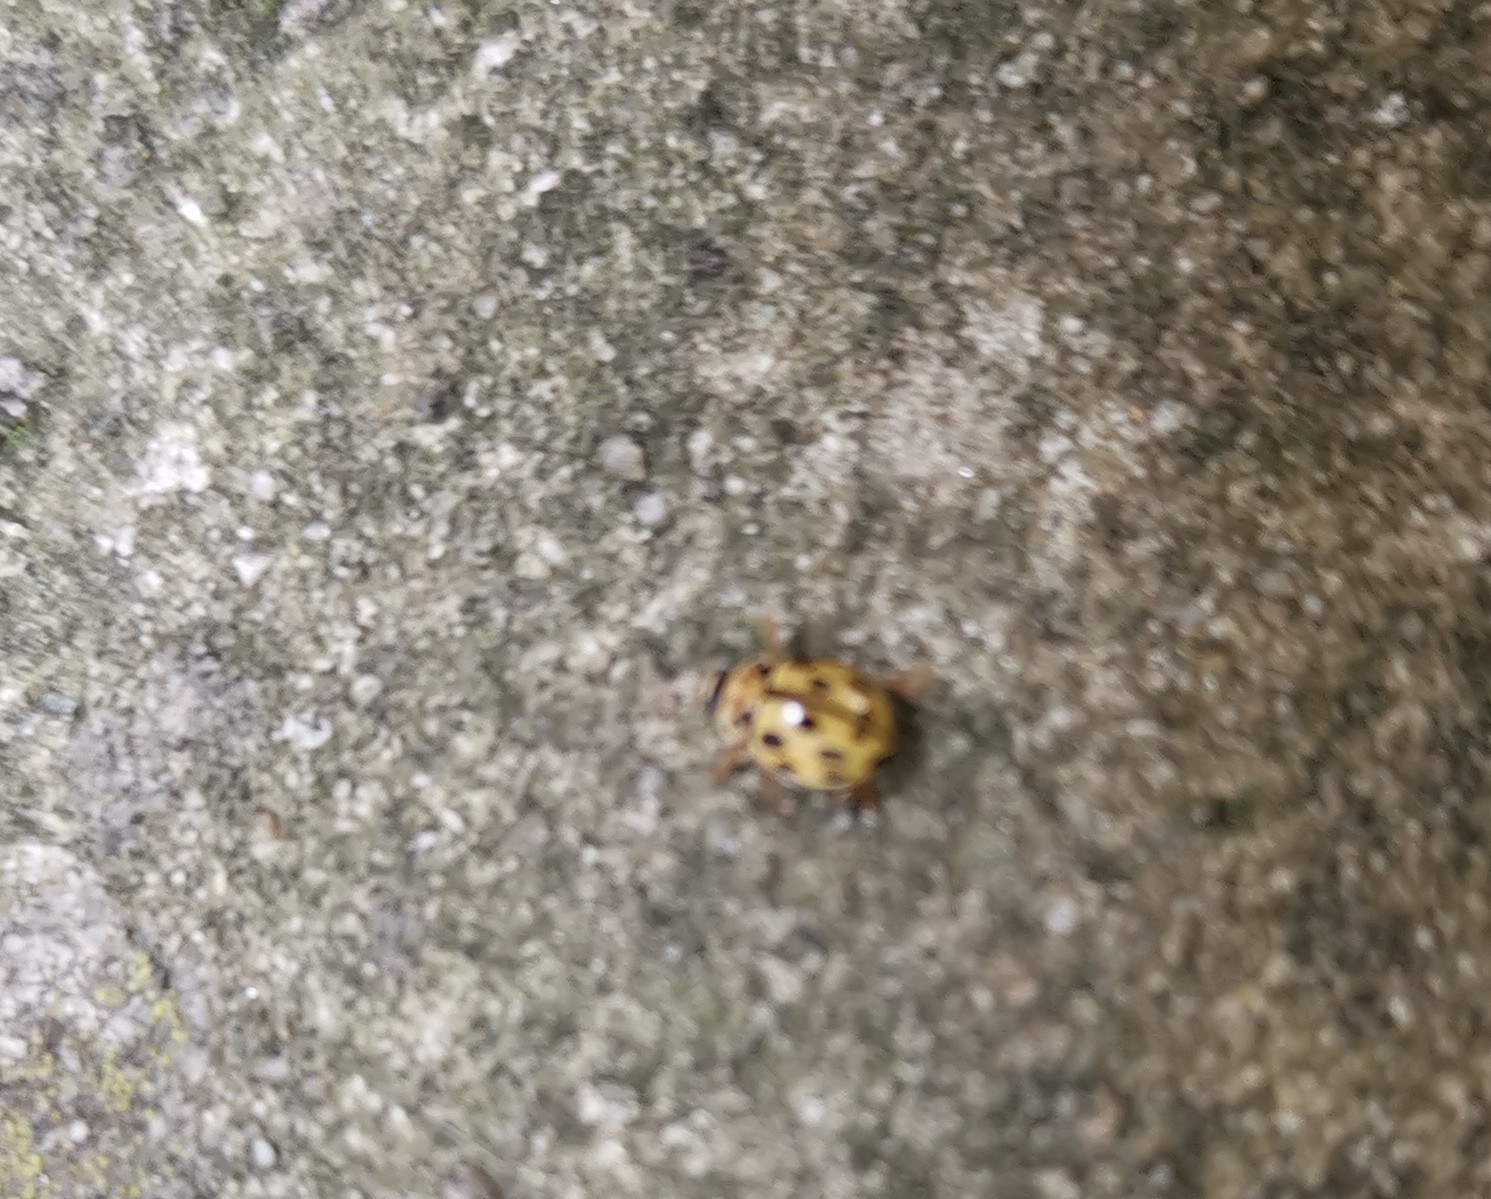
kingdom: Animalia
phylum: Arthropoda
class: Insecta
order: Coleoptera
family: Coccinellidae
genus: Propylaea
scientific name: Propylaea quatuordecimpunctata
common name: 14-spotted ladybird beetle
